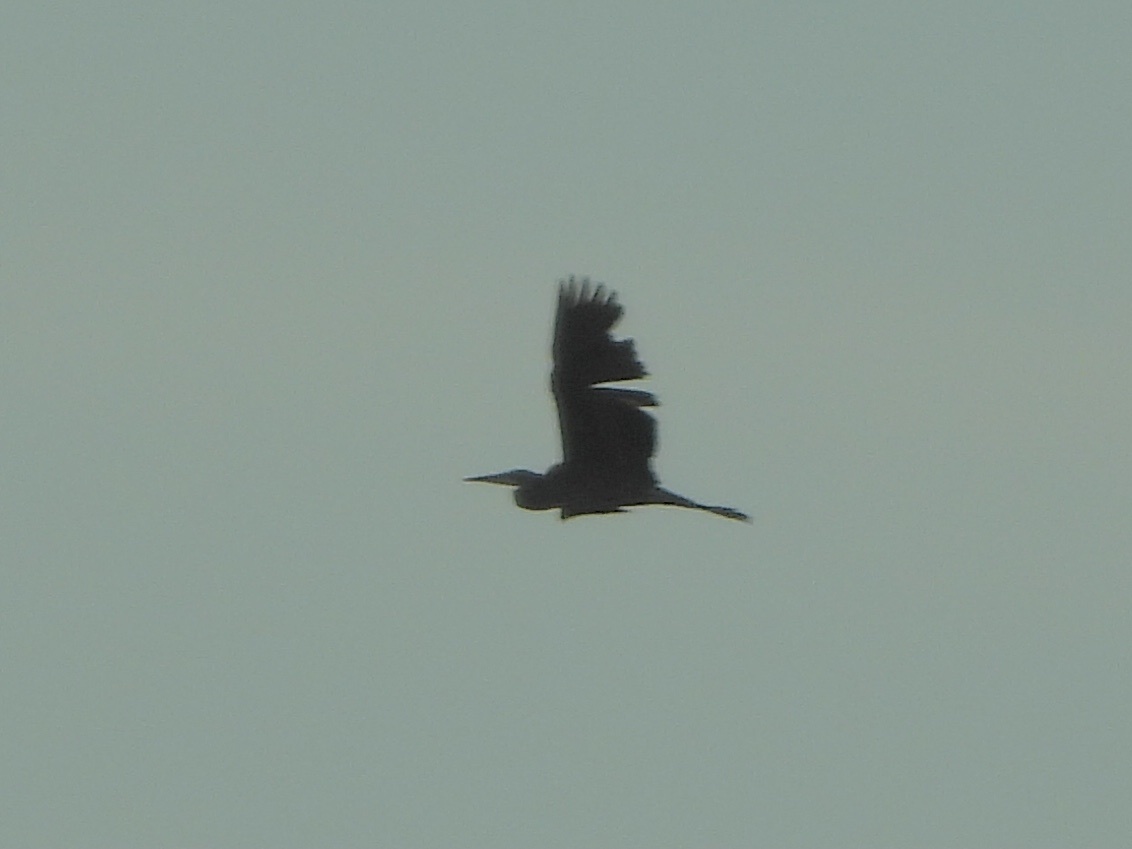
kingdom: Animalia
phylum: Chordata
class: Aves
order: Pelecaniformes
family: Ardeidae
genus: Ardea
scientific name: Ardea herodias
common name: Great blue heron
